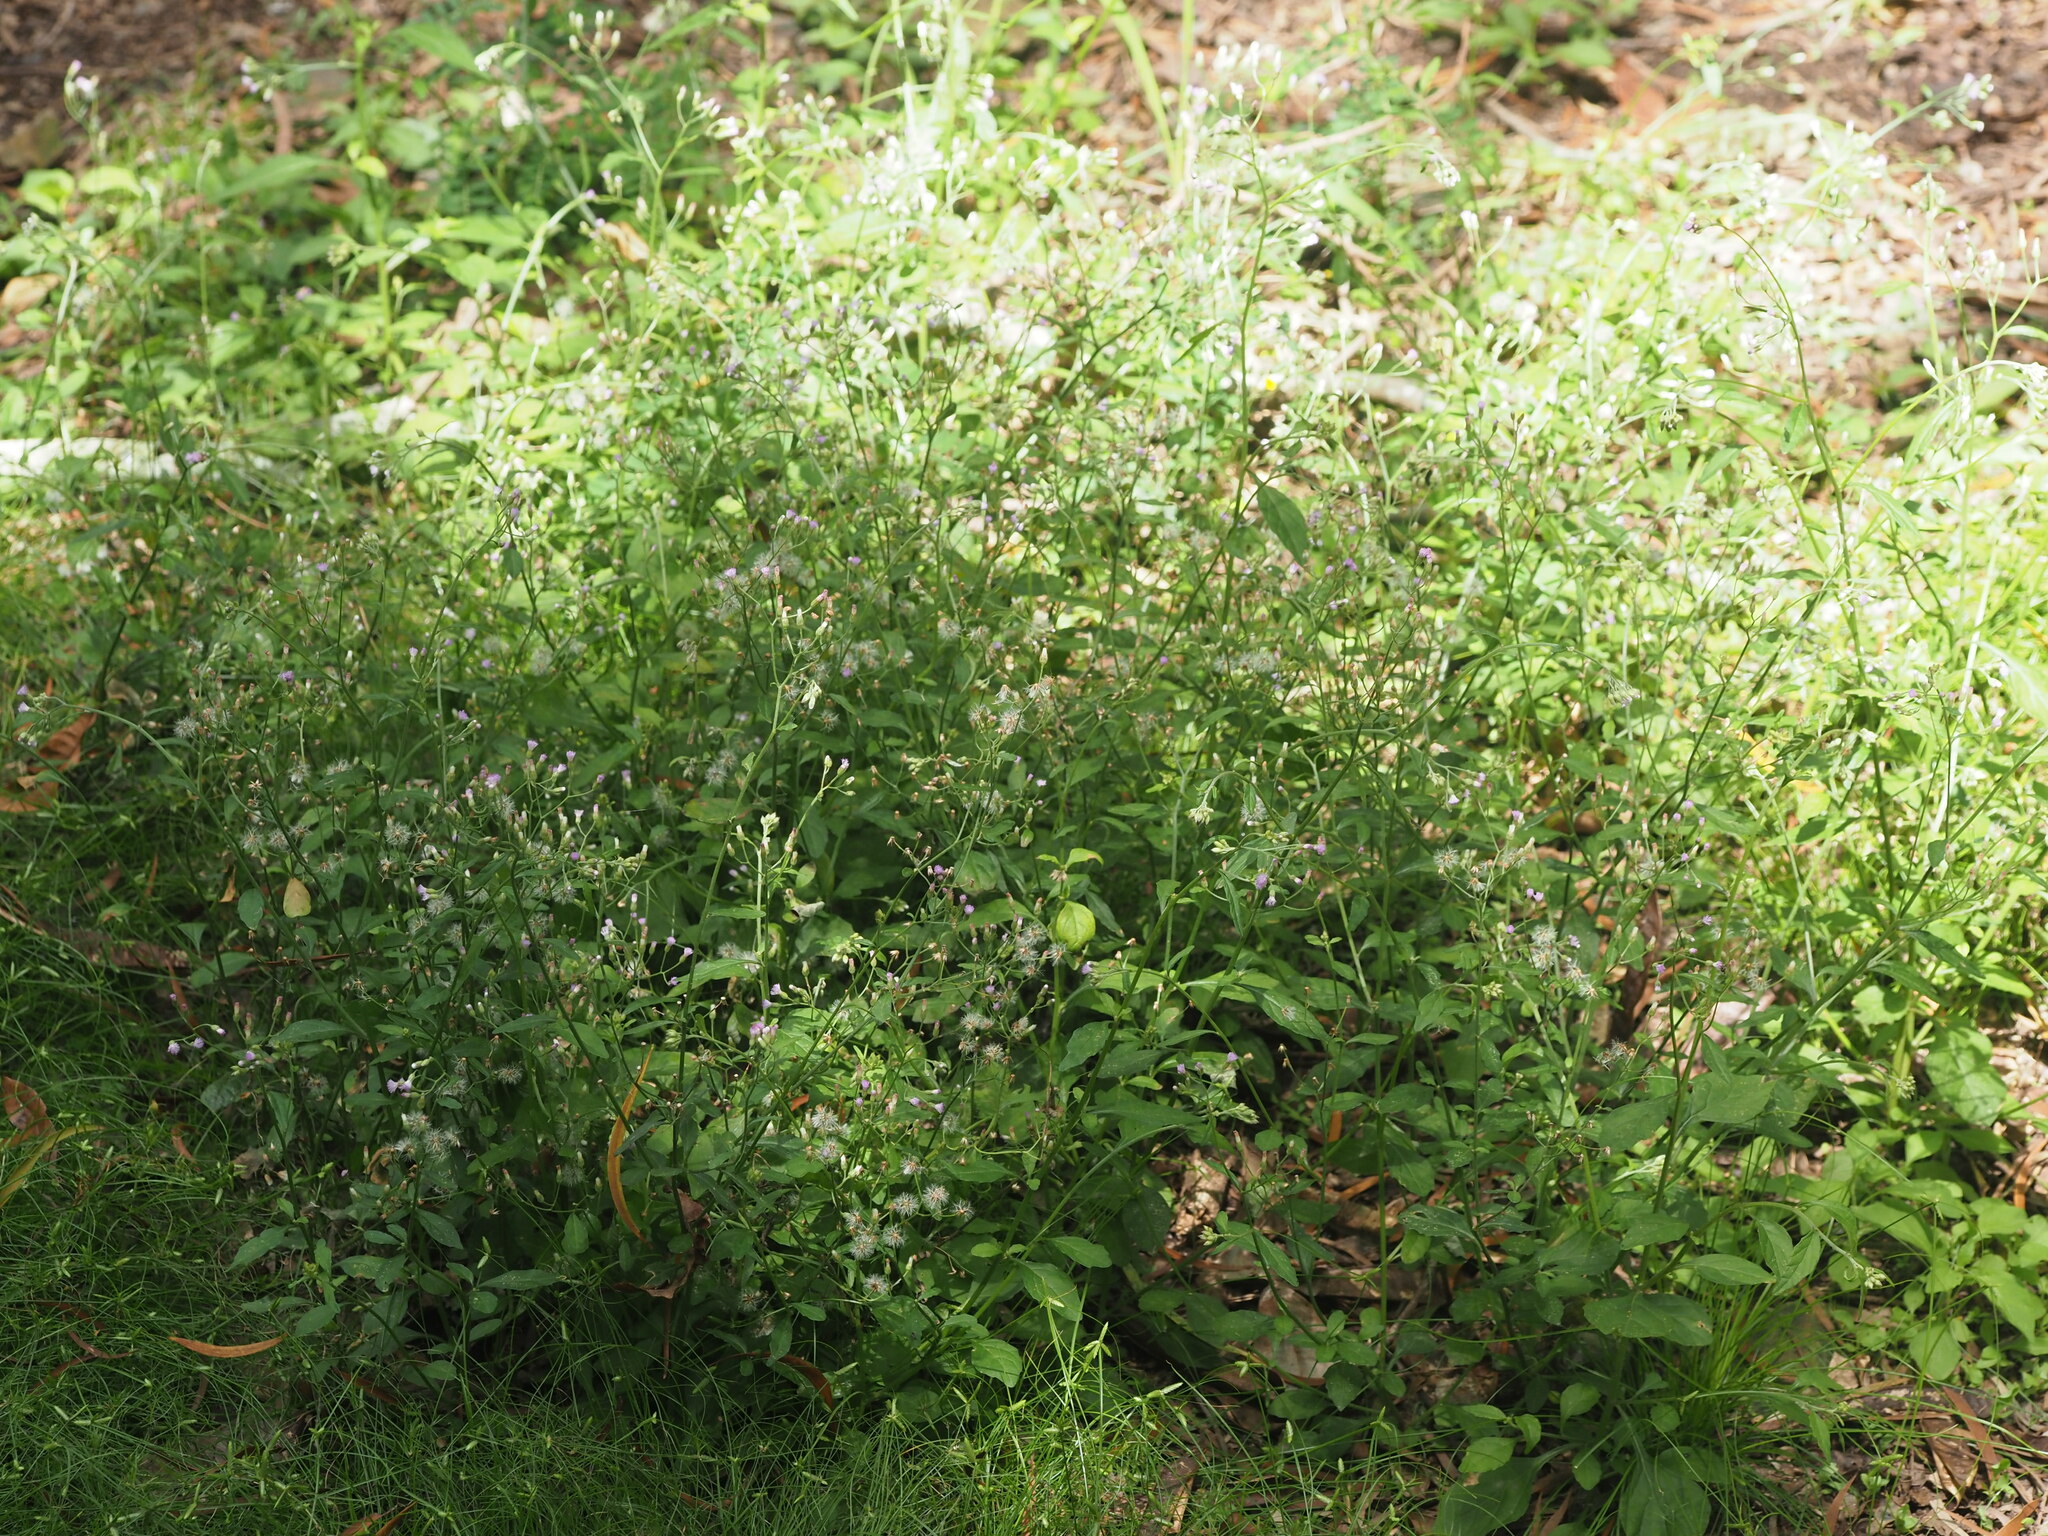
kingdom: Plantae
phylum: Tracheophyta
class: Magnoliopsida
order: Asterales
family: Asteraceae
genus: Cyanthillium
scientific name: Cyanthillium cinereum
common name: Little ironweed
